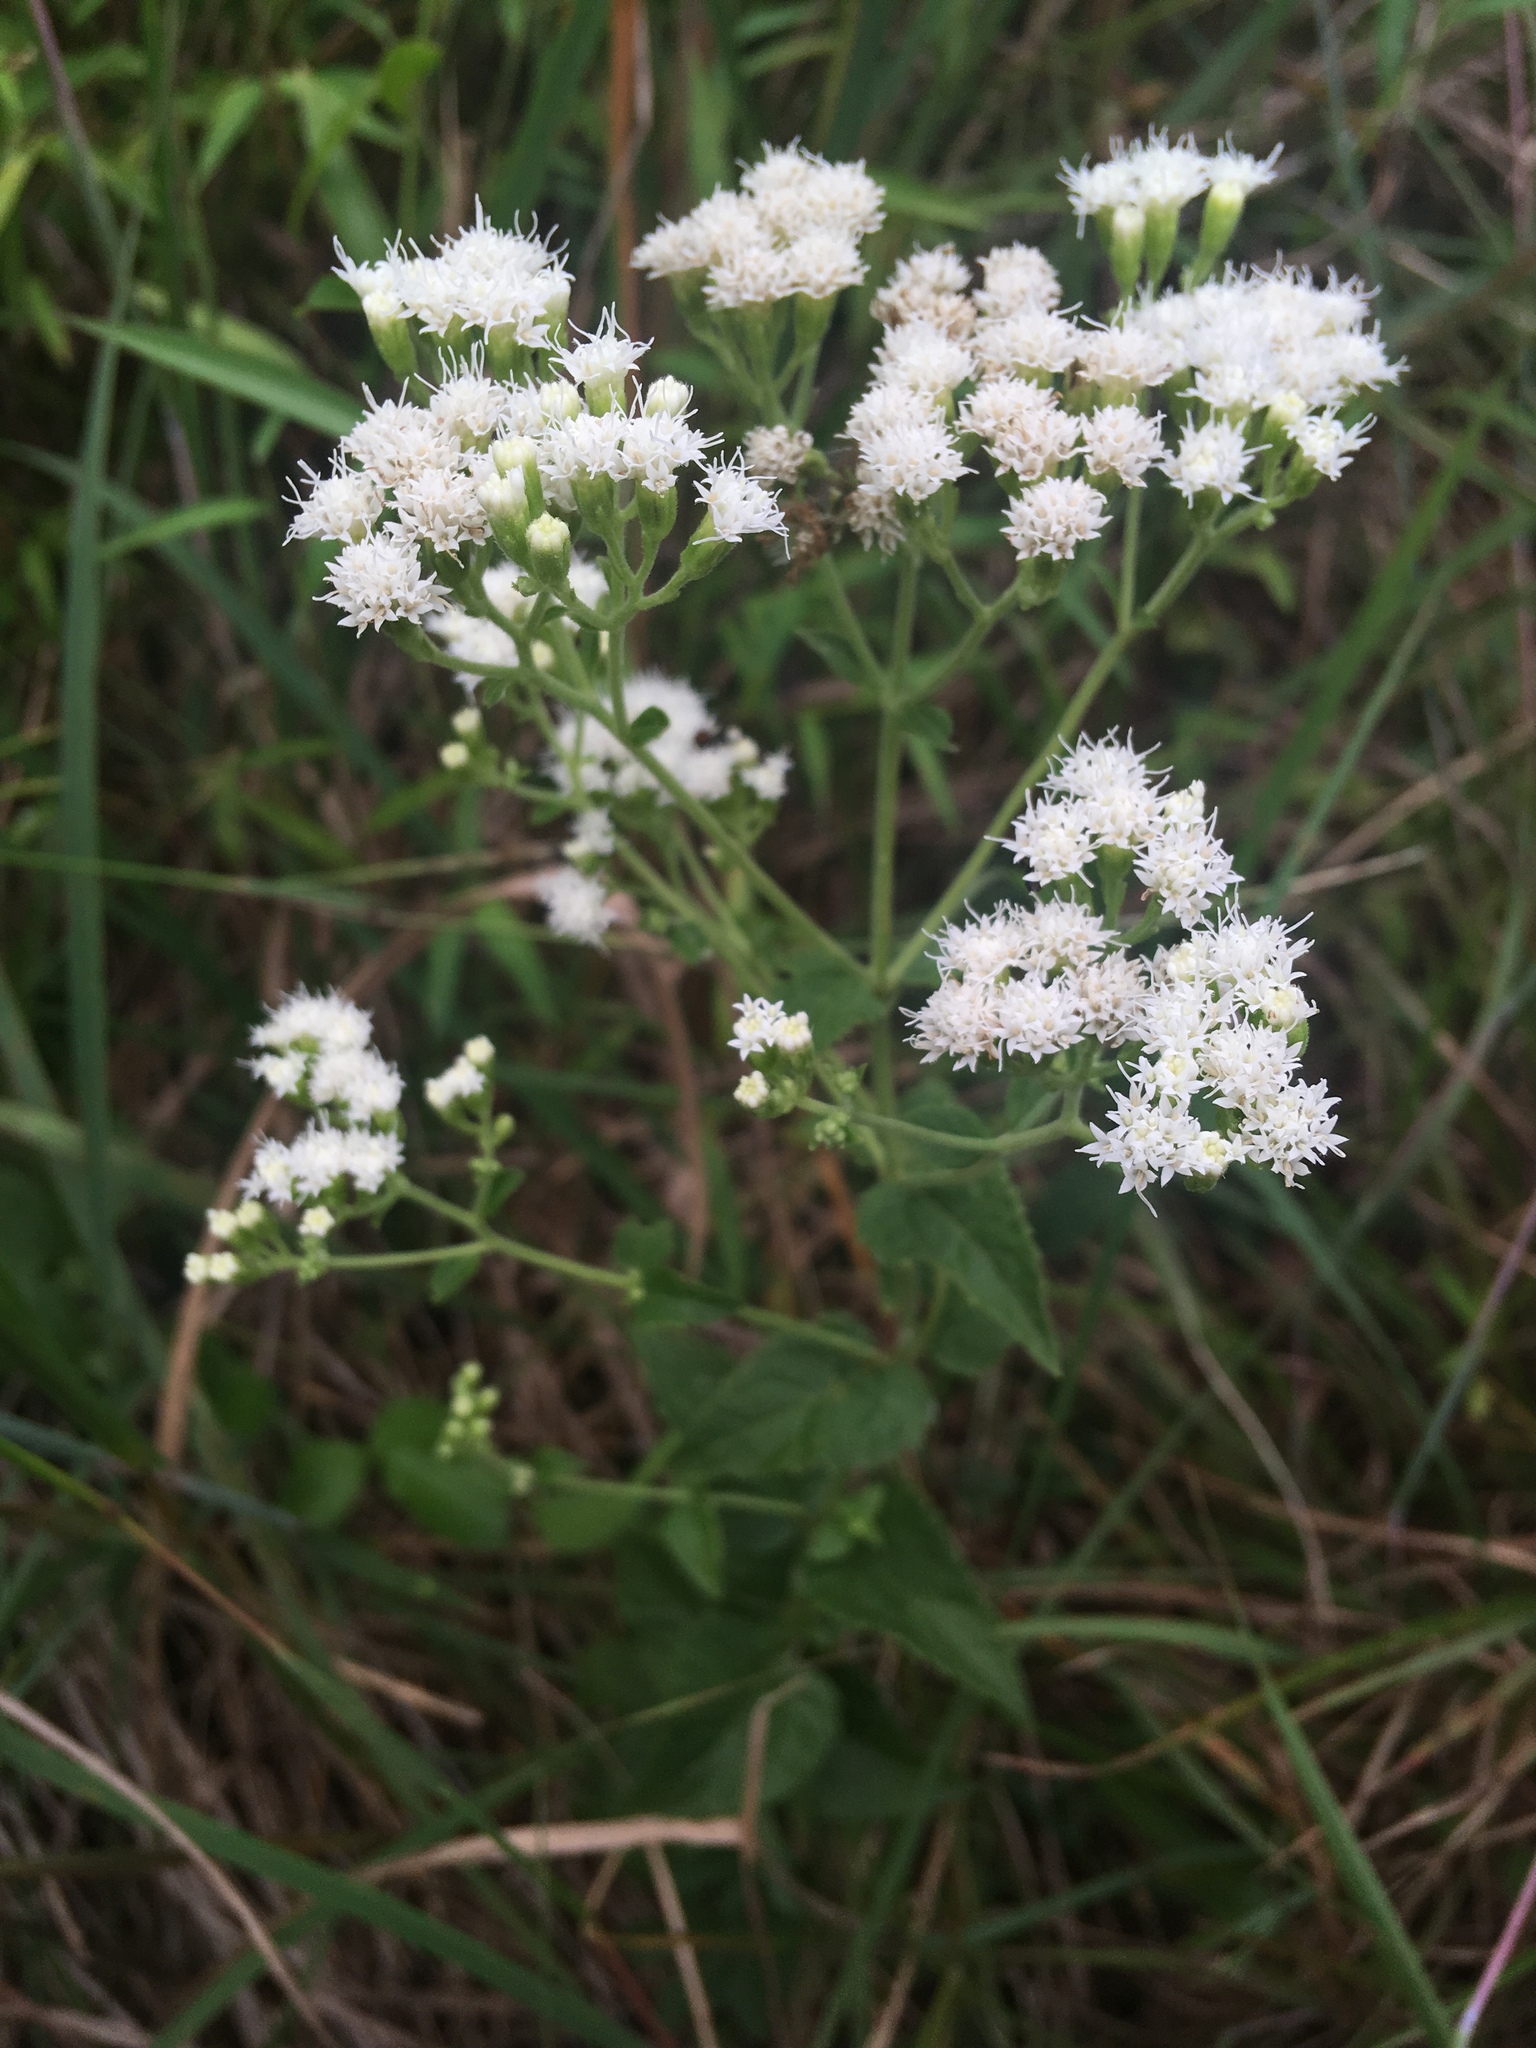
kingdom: Plantae
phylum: Tracheophyta
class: Magnoliopsida
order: Asterales
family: Asteraceae
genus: Ageratina
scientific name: Ageratina aromatica
